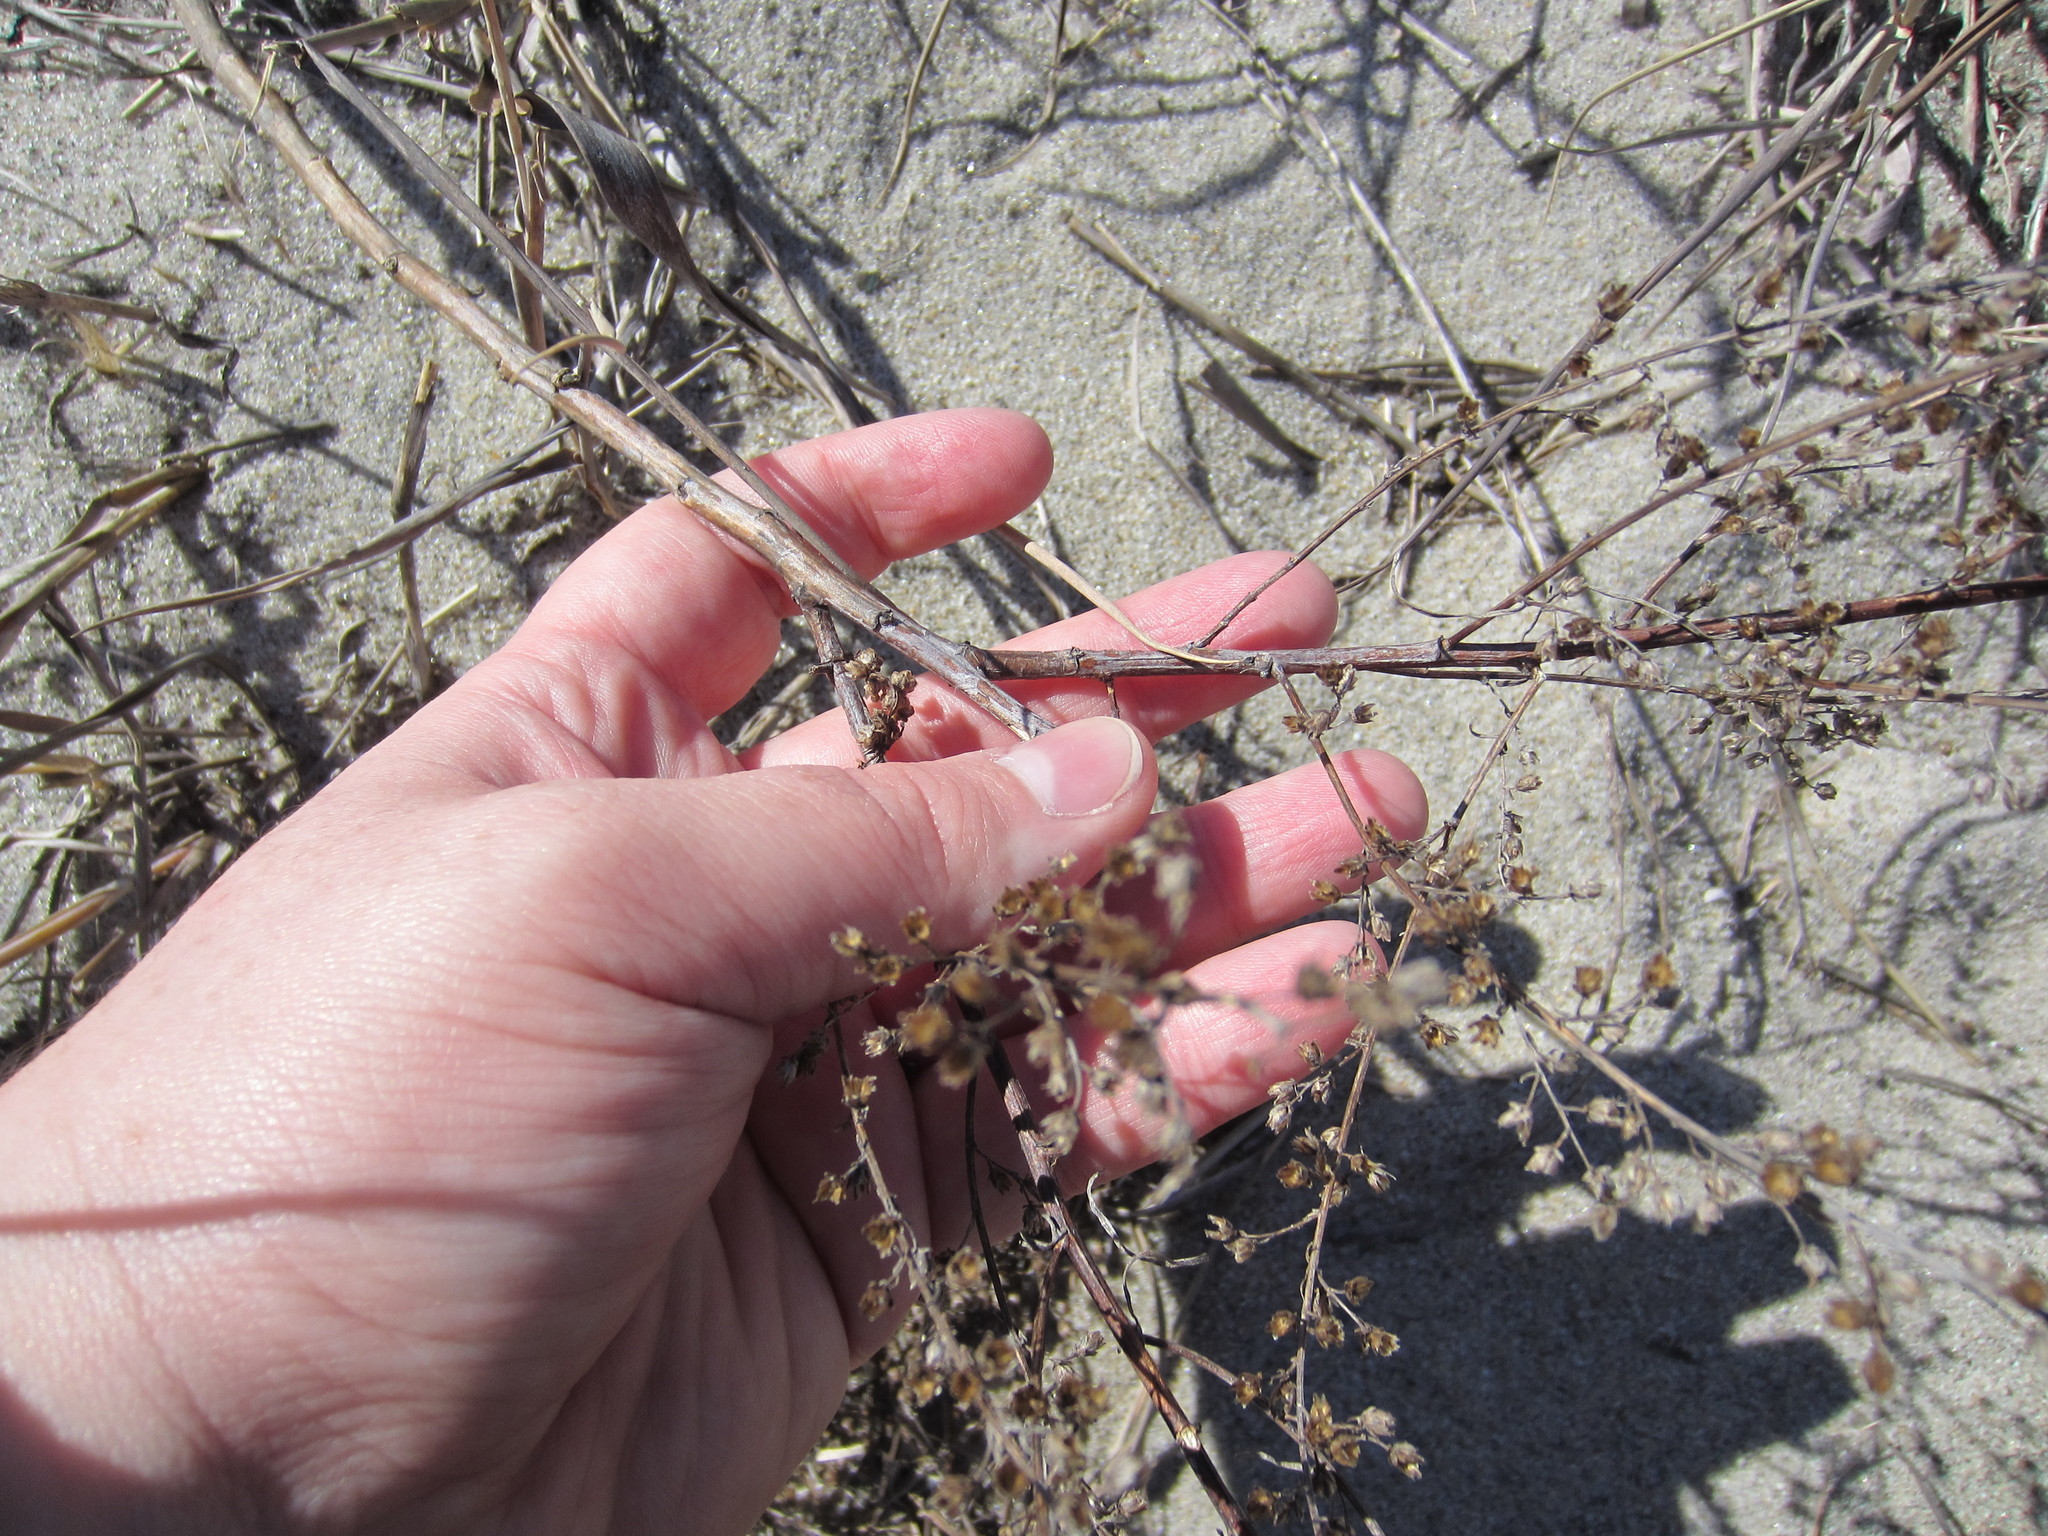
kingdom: Plantae
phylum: Tracheophyta
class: Magnoliopsida
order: Asterales
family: Asteraceae
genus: Artemisia
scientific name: Artemisia campestris
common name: Field wormwood
